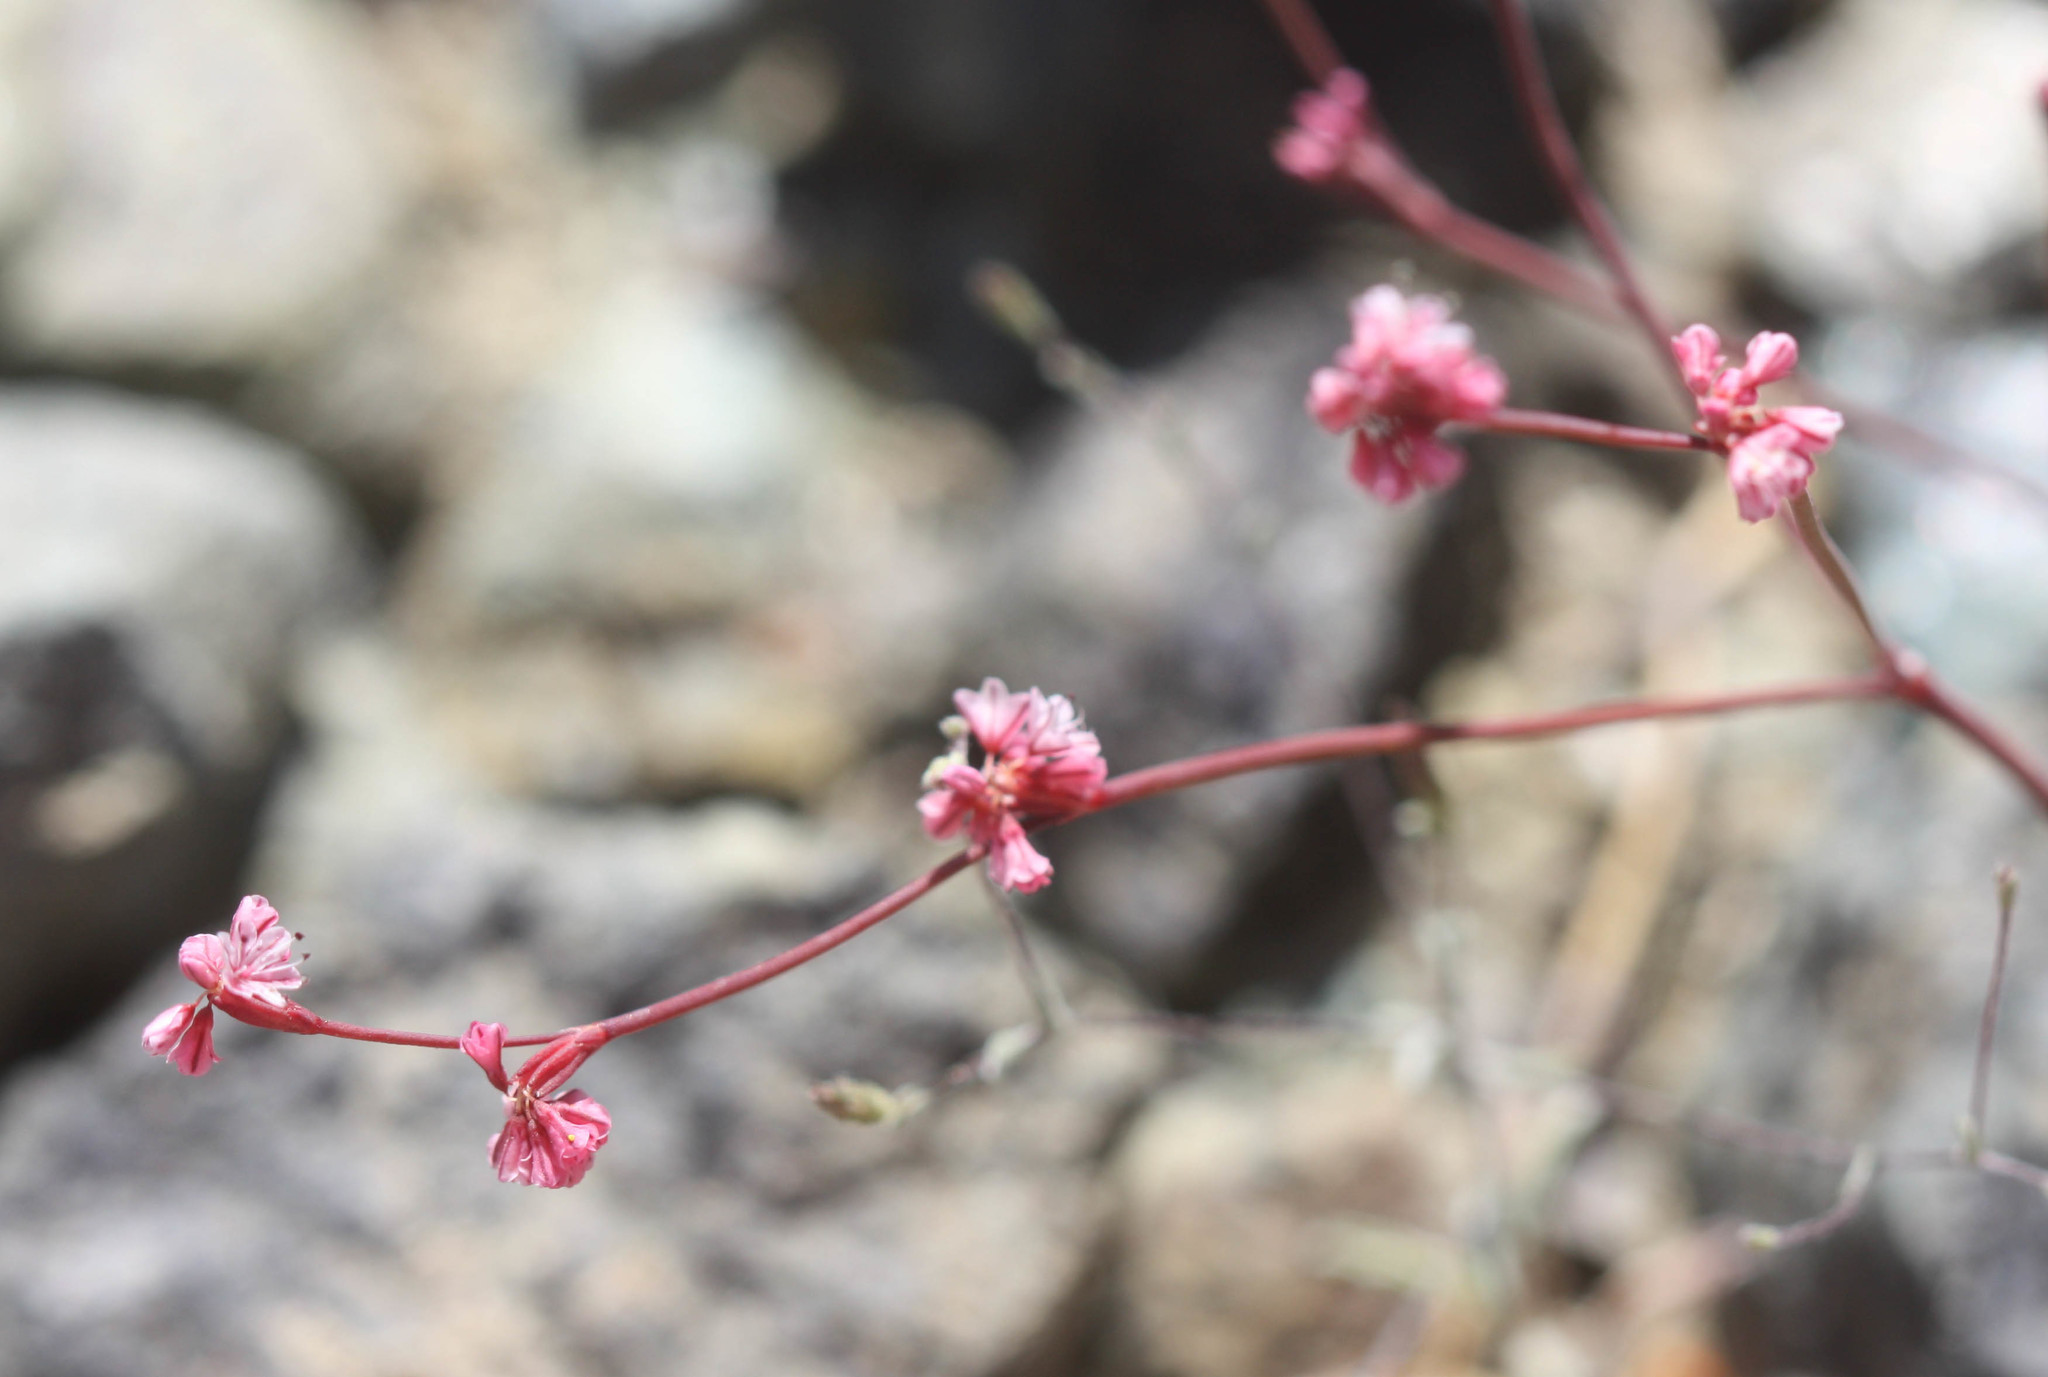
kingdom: Plantae
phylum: Tracheophyta
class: Magnoliopsida
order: Caryophyllales
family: Polygonaceae
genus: Eriogonum
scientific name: Eriogonum luteolum
